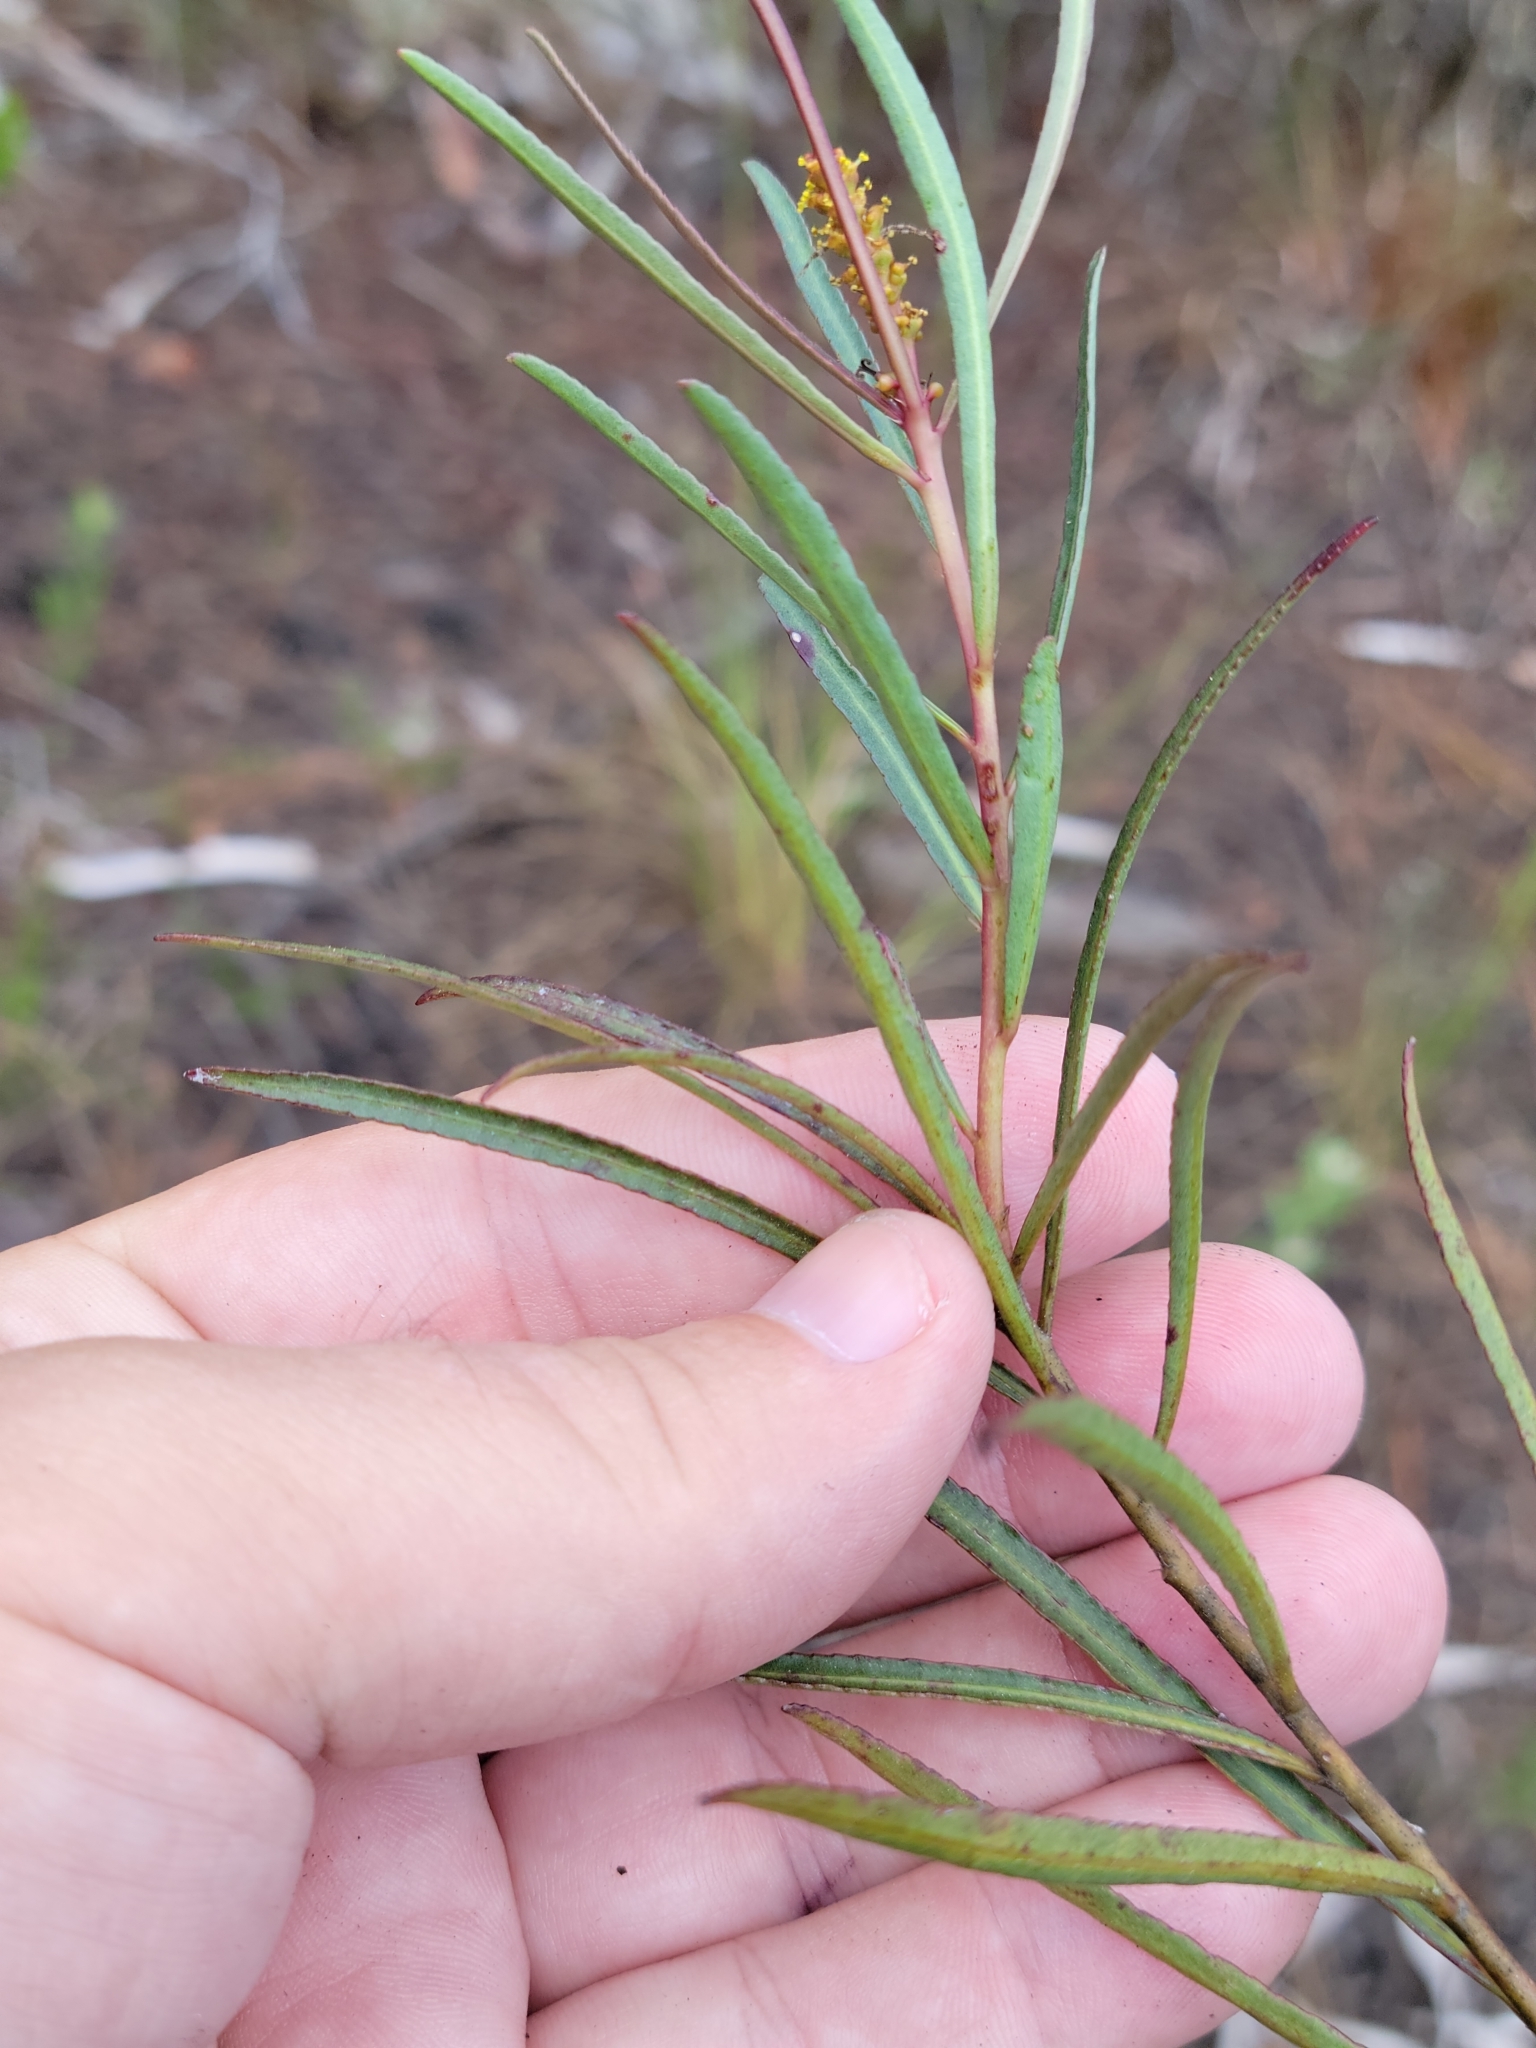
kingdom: Plantae
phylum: Tracheophyta
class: Magnoliopsida
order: Malpighiales
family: Euphorbiaceae
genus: Stillingia
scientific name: Stillingia sylvatica
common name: Queen's-delight
